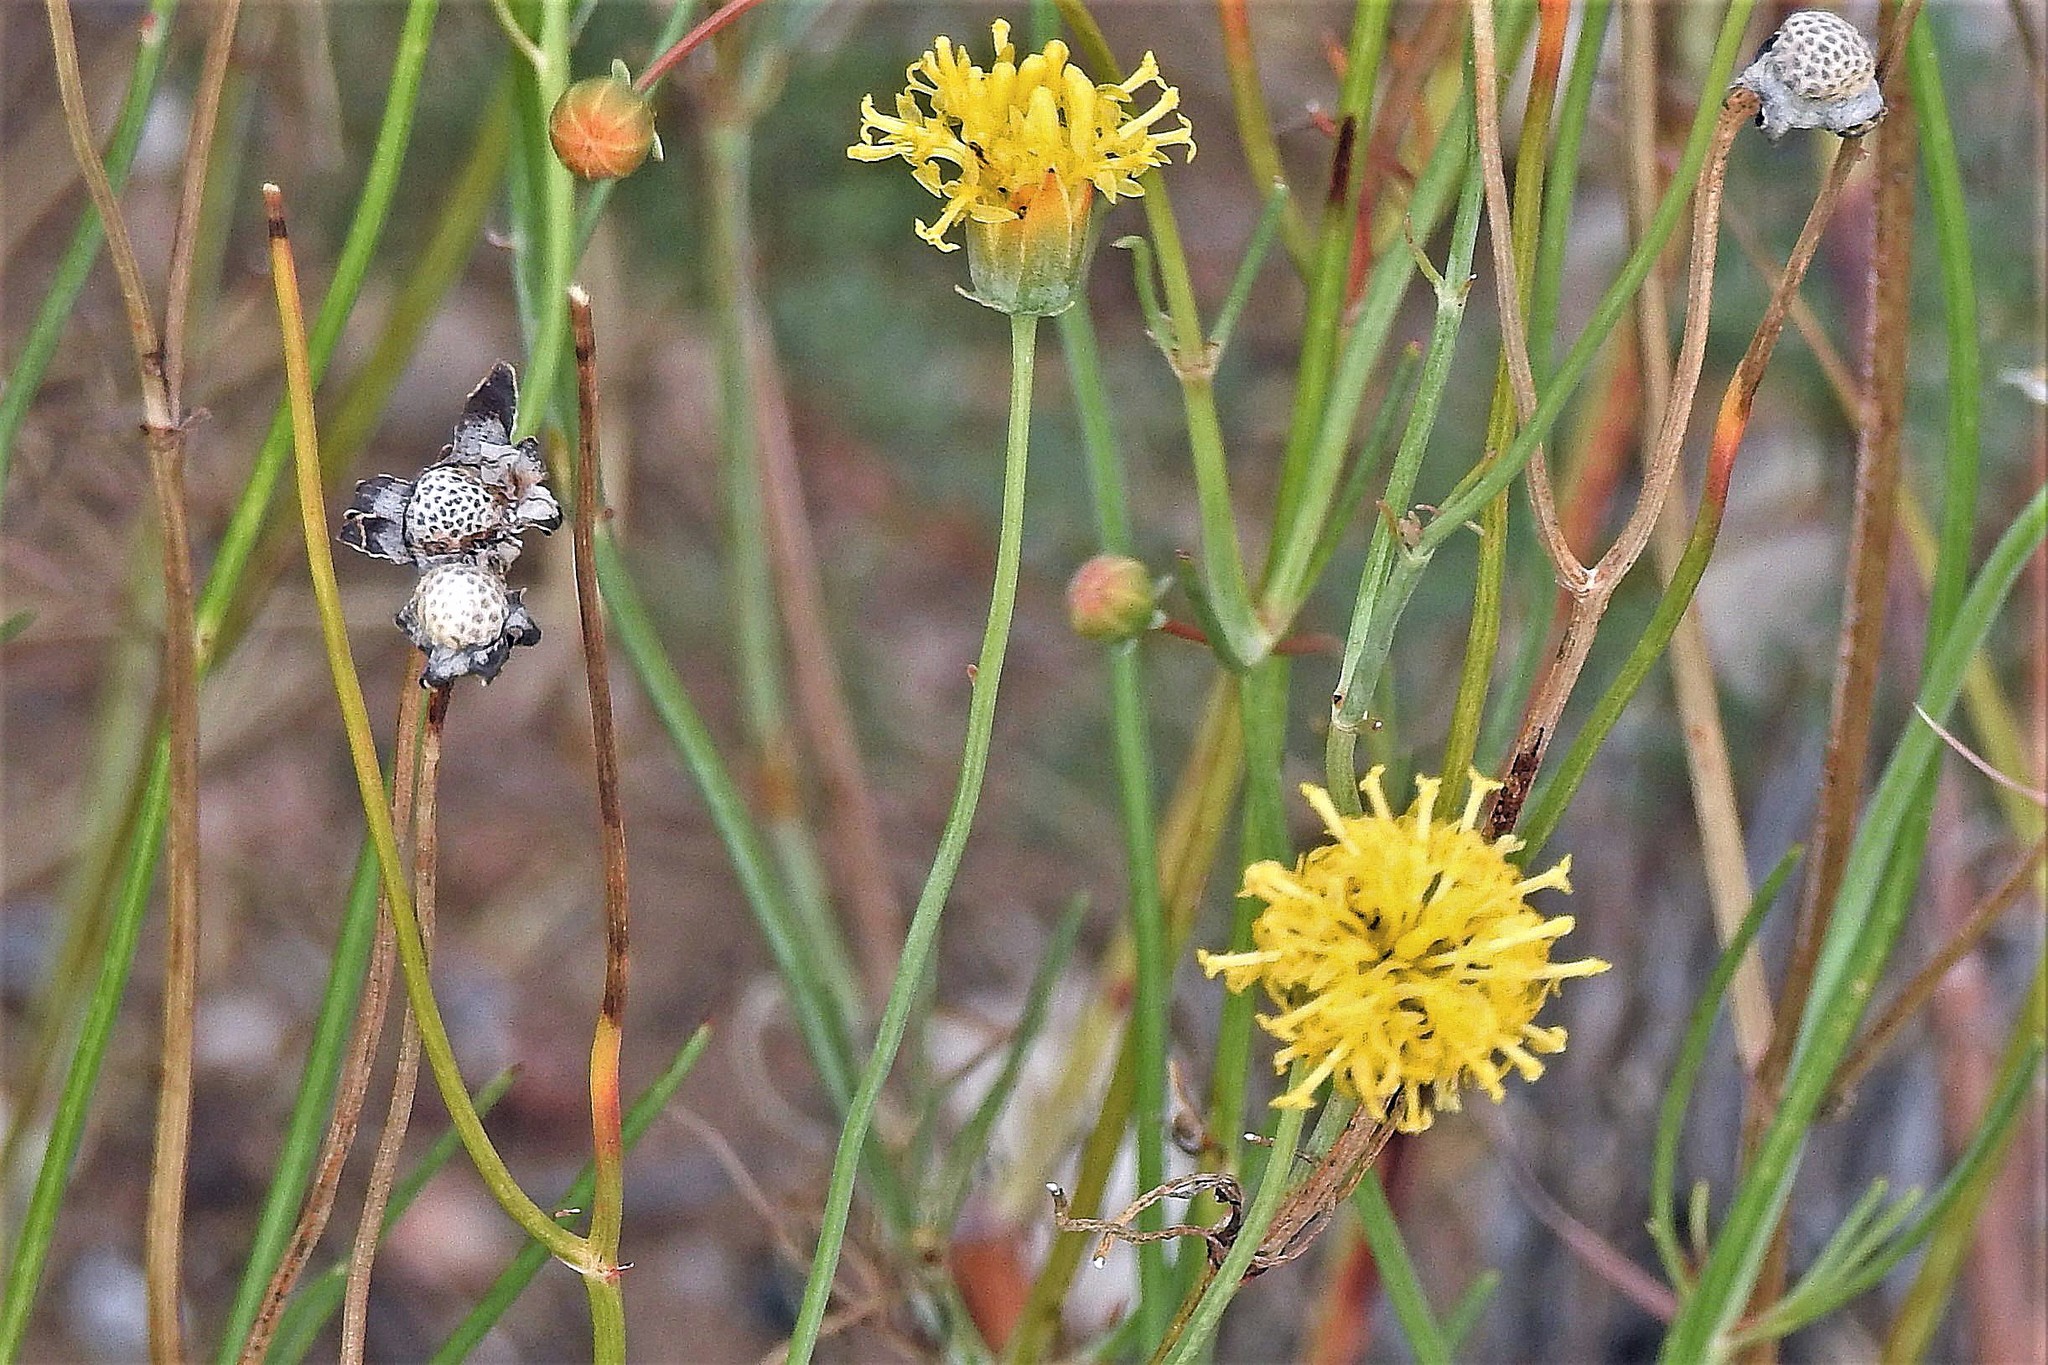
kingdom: Plantae
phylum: Tracheophyta
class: Magnoliopsida
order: Asterales
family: Asteraceae
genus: Thelesperma
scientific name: Thelesperma megapotamicum
